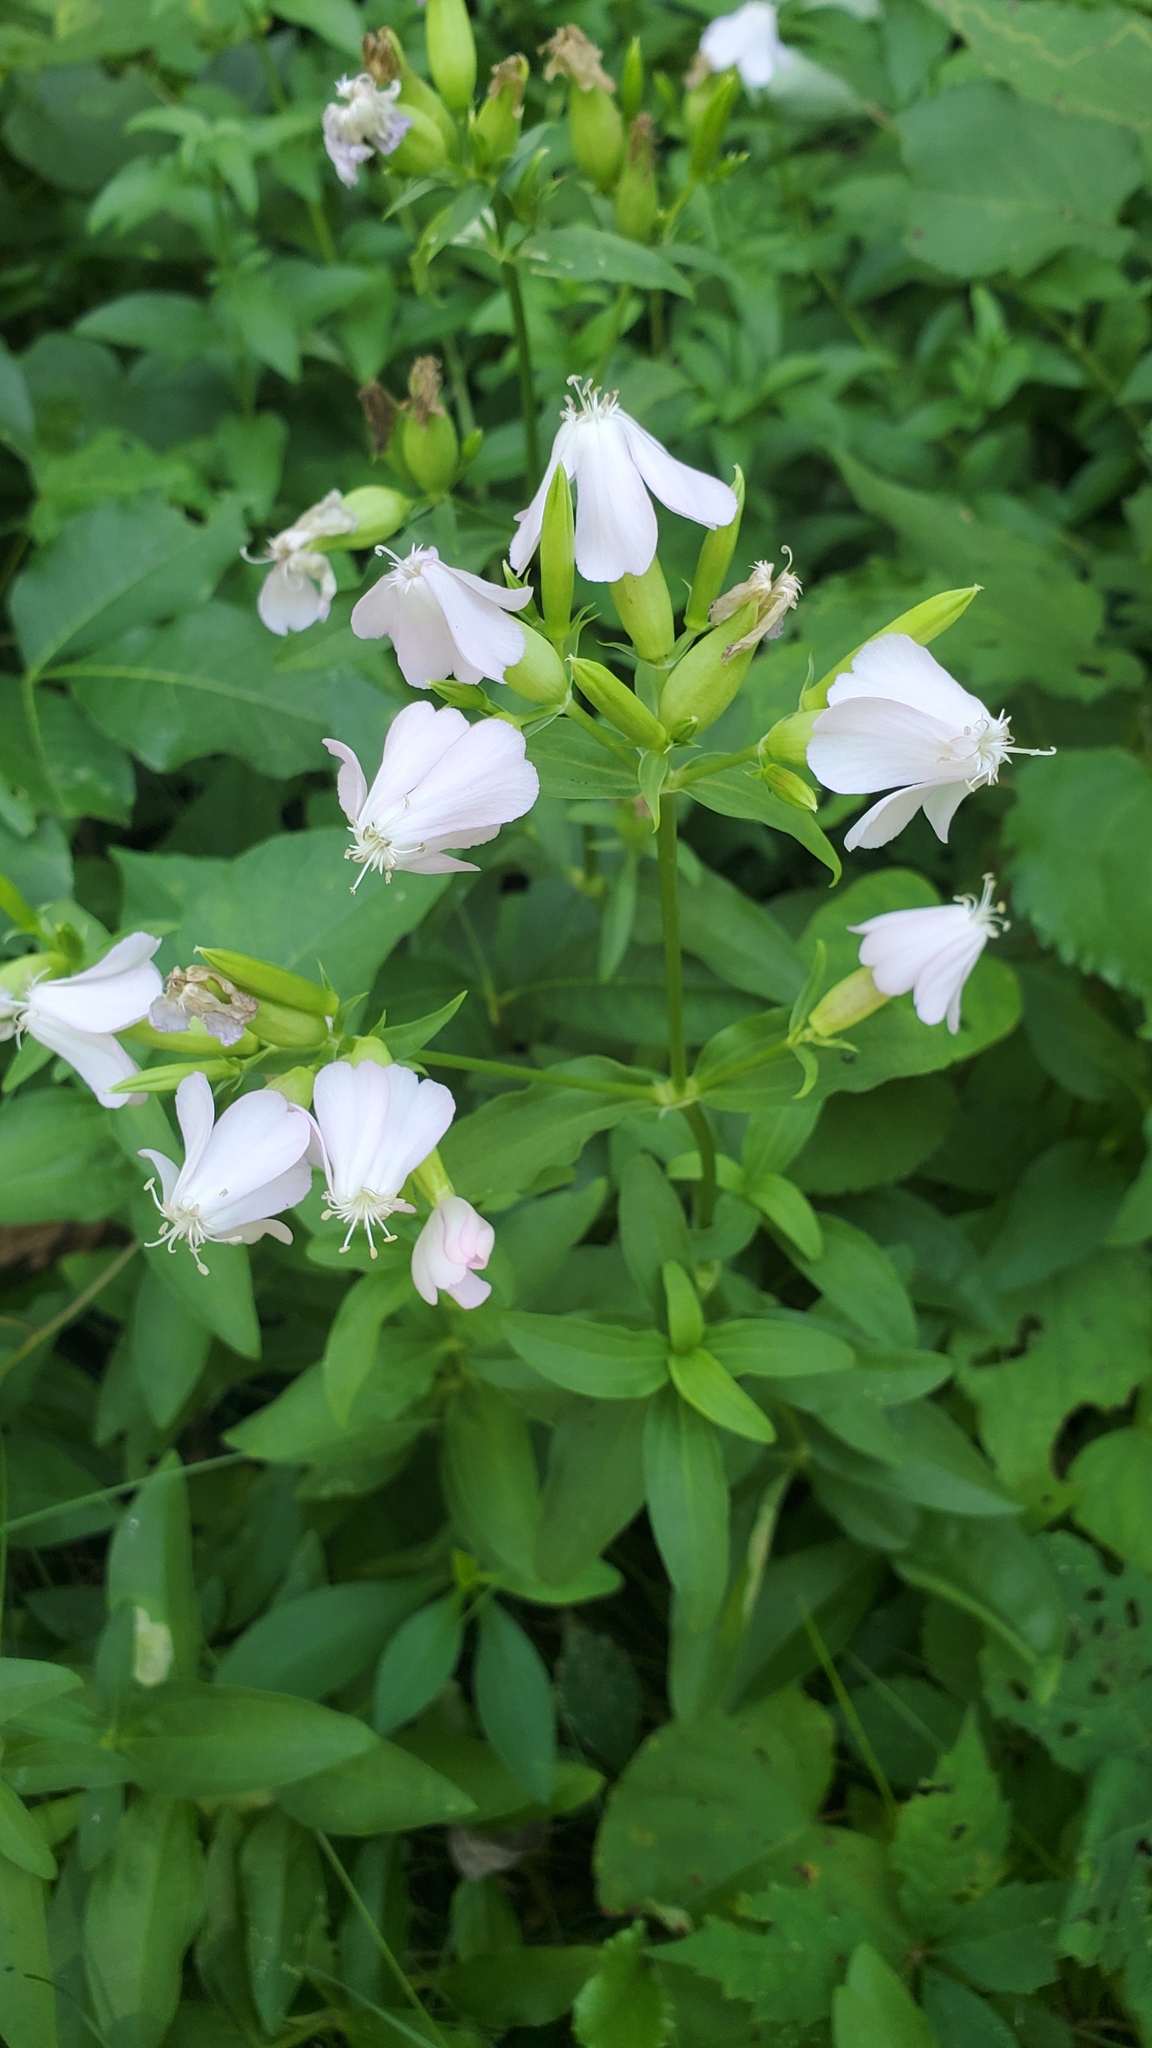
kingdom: Plantae
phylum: Tracheophyta
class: Magnoliopsida
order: Caryophyllales
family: Caryophyllaceae
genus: Saponaria
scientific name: Saponaria officinalis
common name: Soapwort
